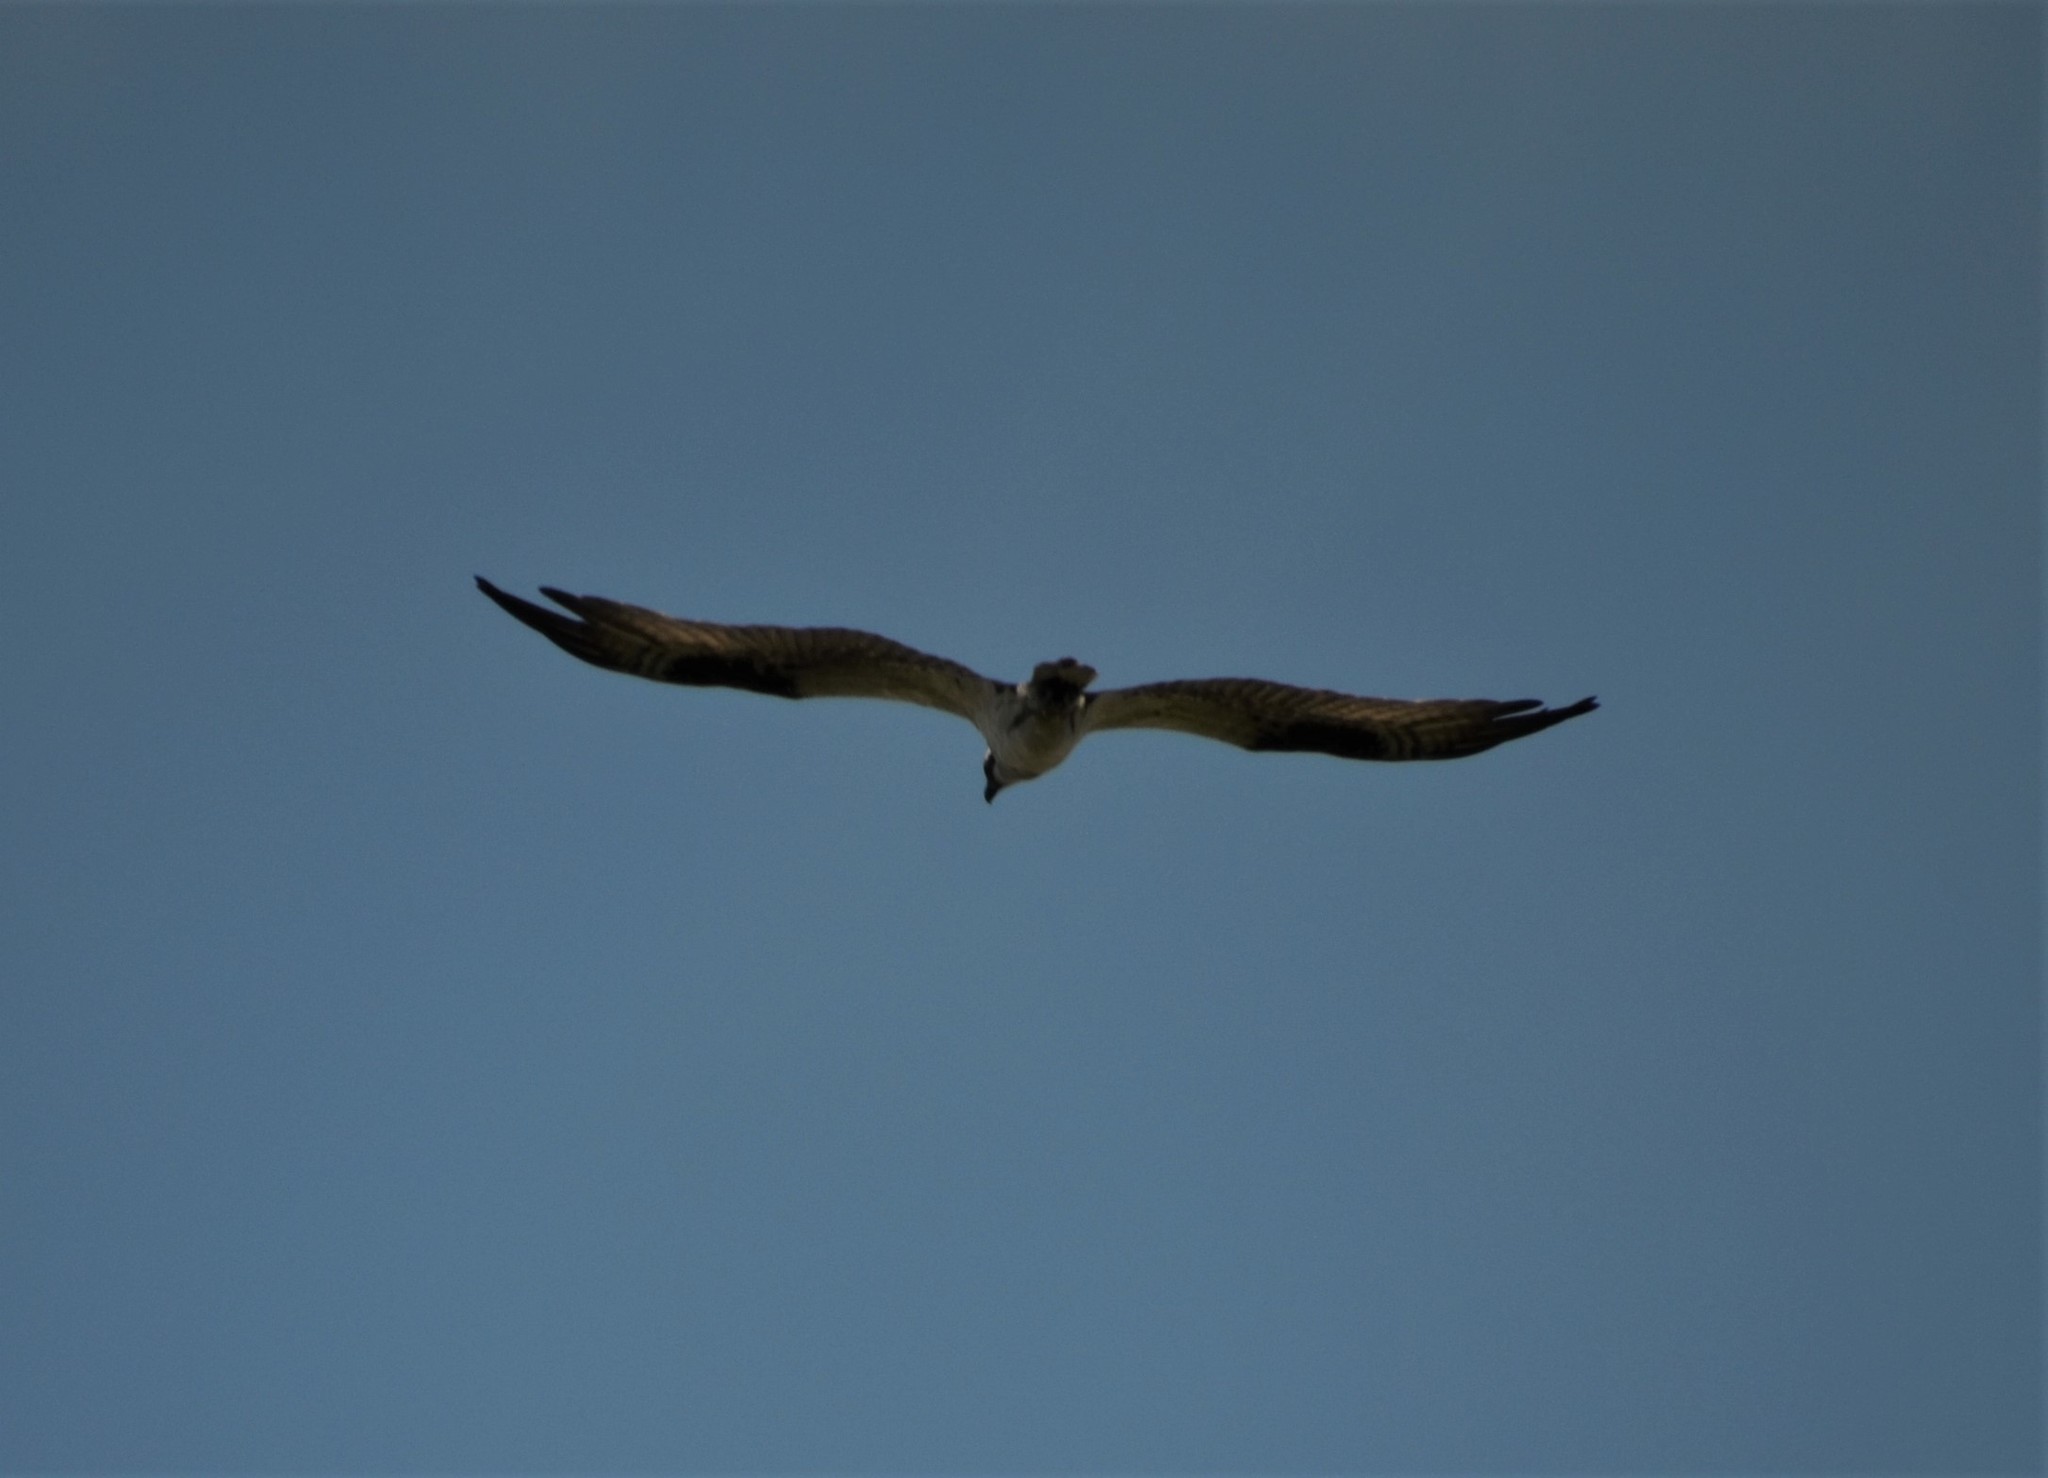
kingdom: Animalia
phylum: Chordata
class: Aves
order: Accipitriformes
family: Pandionidae
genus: Pandion
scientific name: Pandion haliaetus
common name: Osprey
